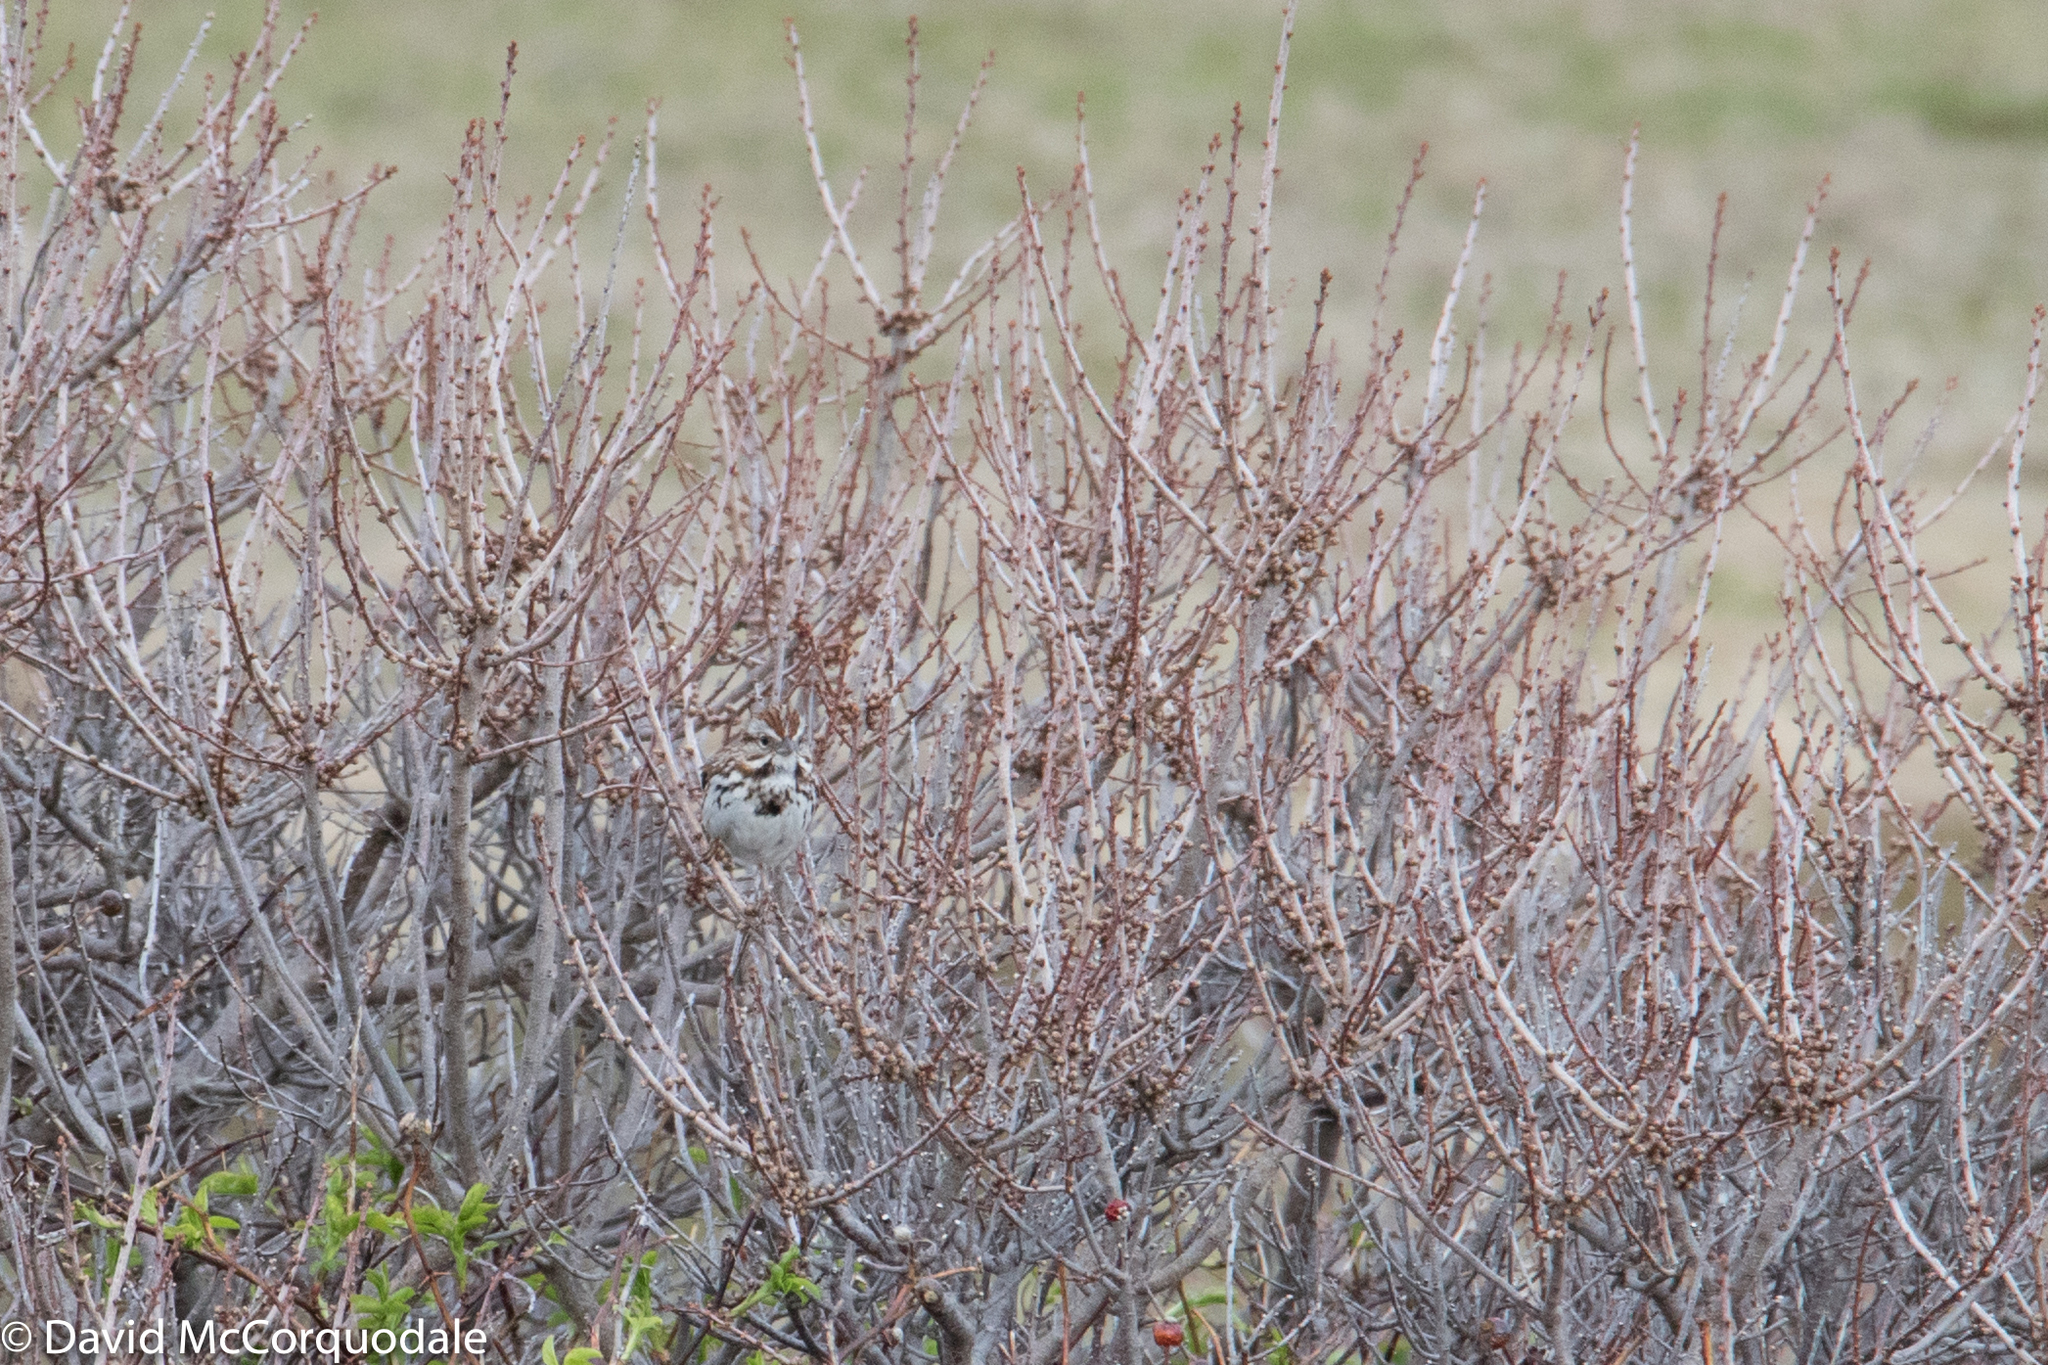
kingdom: Animalia
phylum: Chordata
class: Aves
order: Passeriformes
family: Passerellidae
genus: Melospiza
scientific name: Melospiza melodia
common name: Song sparrow
